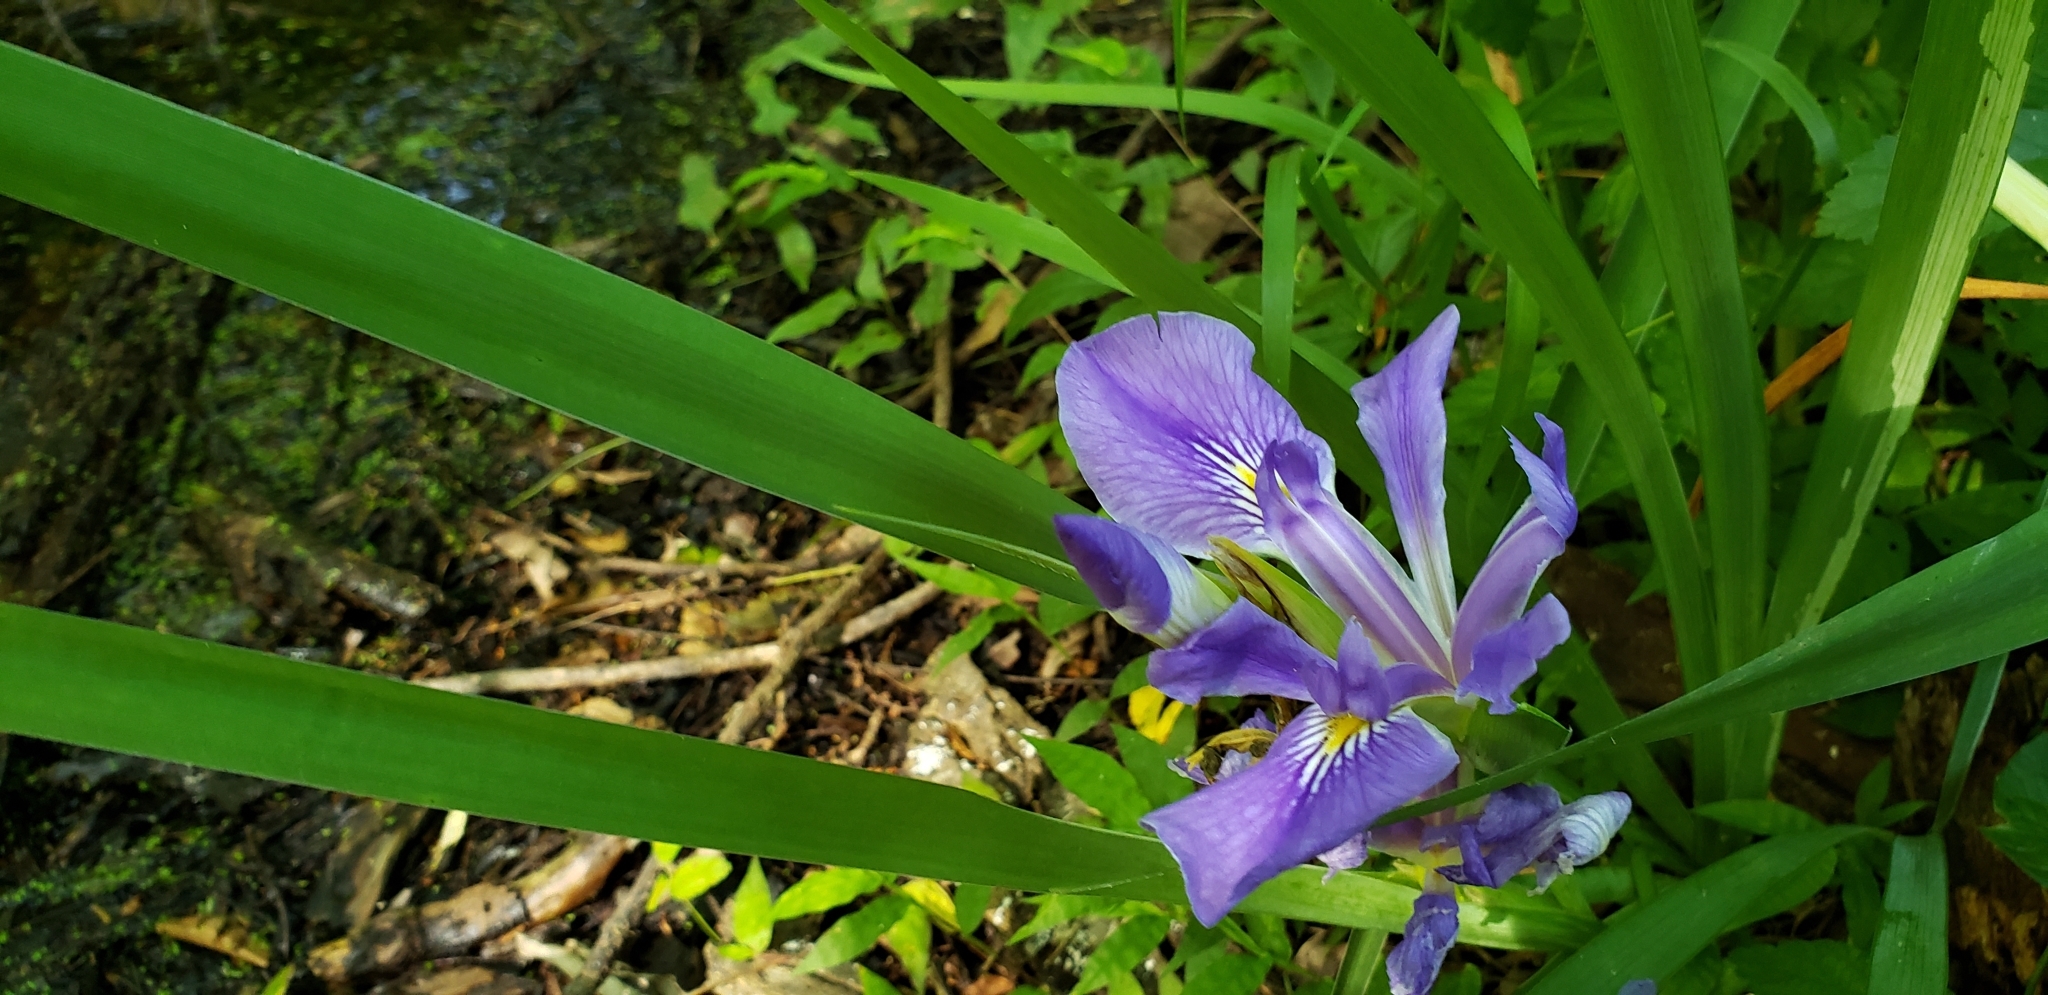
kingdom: Plantae
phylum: Tracheophyta
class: Liliopsida
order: Asparagales
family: Iridaceae
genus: Iris
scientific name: Iris brevicaulis
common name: Zigzag iris
